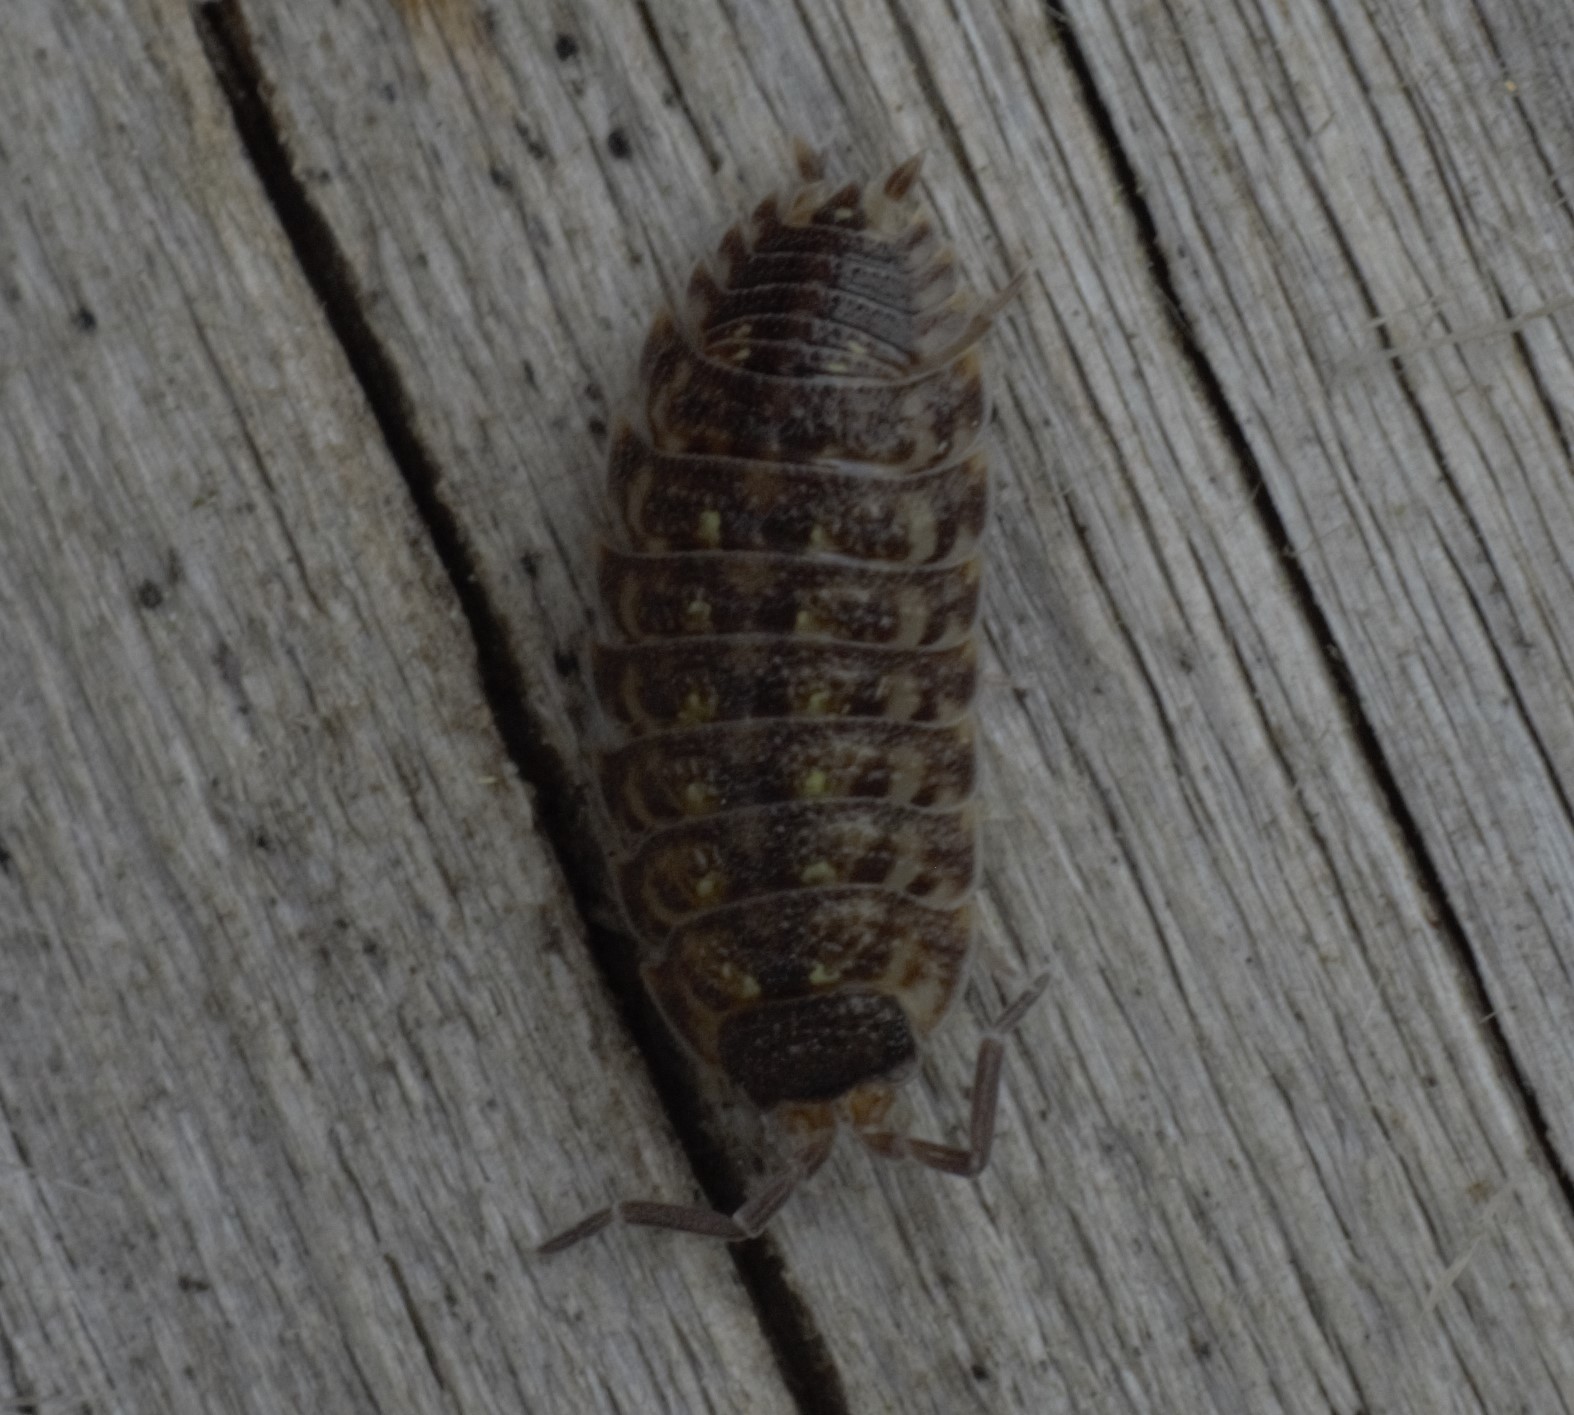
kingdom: Animalia
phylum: Arthropoda
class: Malacostraca
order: Isopoda
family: Porcellionidae
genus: Porcellio
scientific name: Porcellio spinicornis
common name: Painted woodlouse
